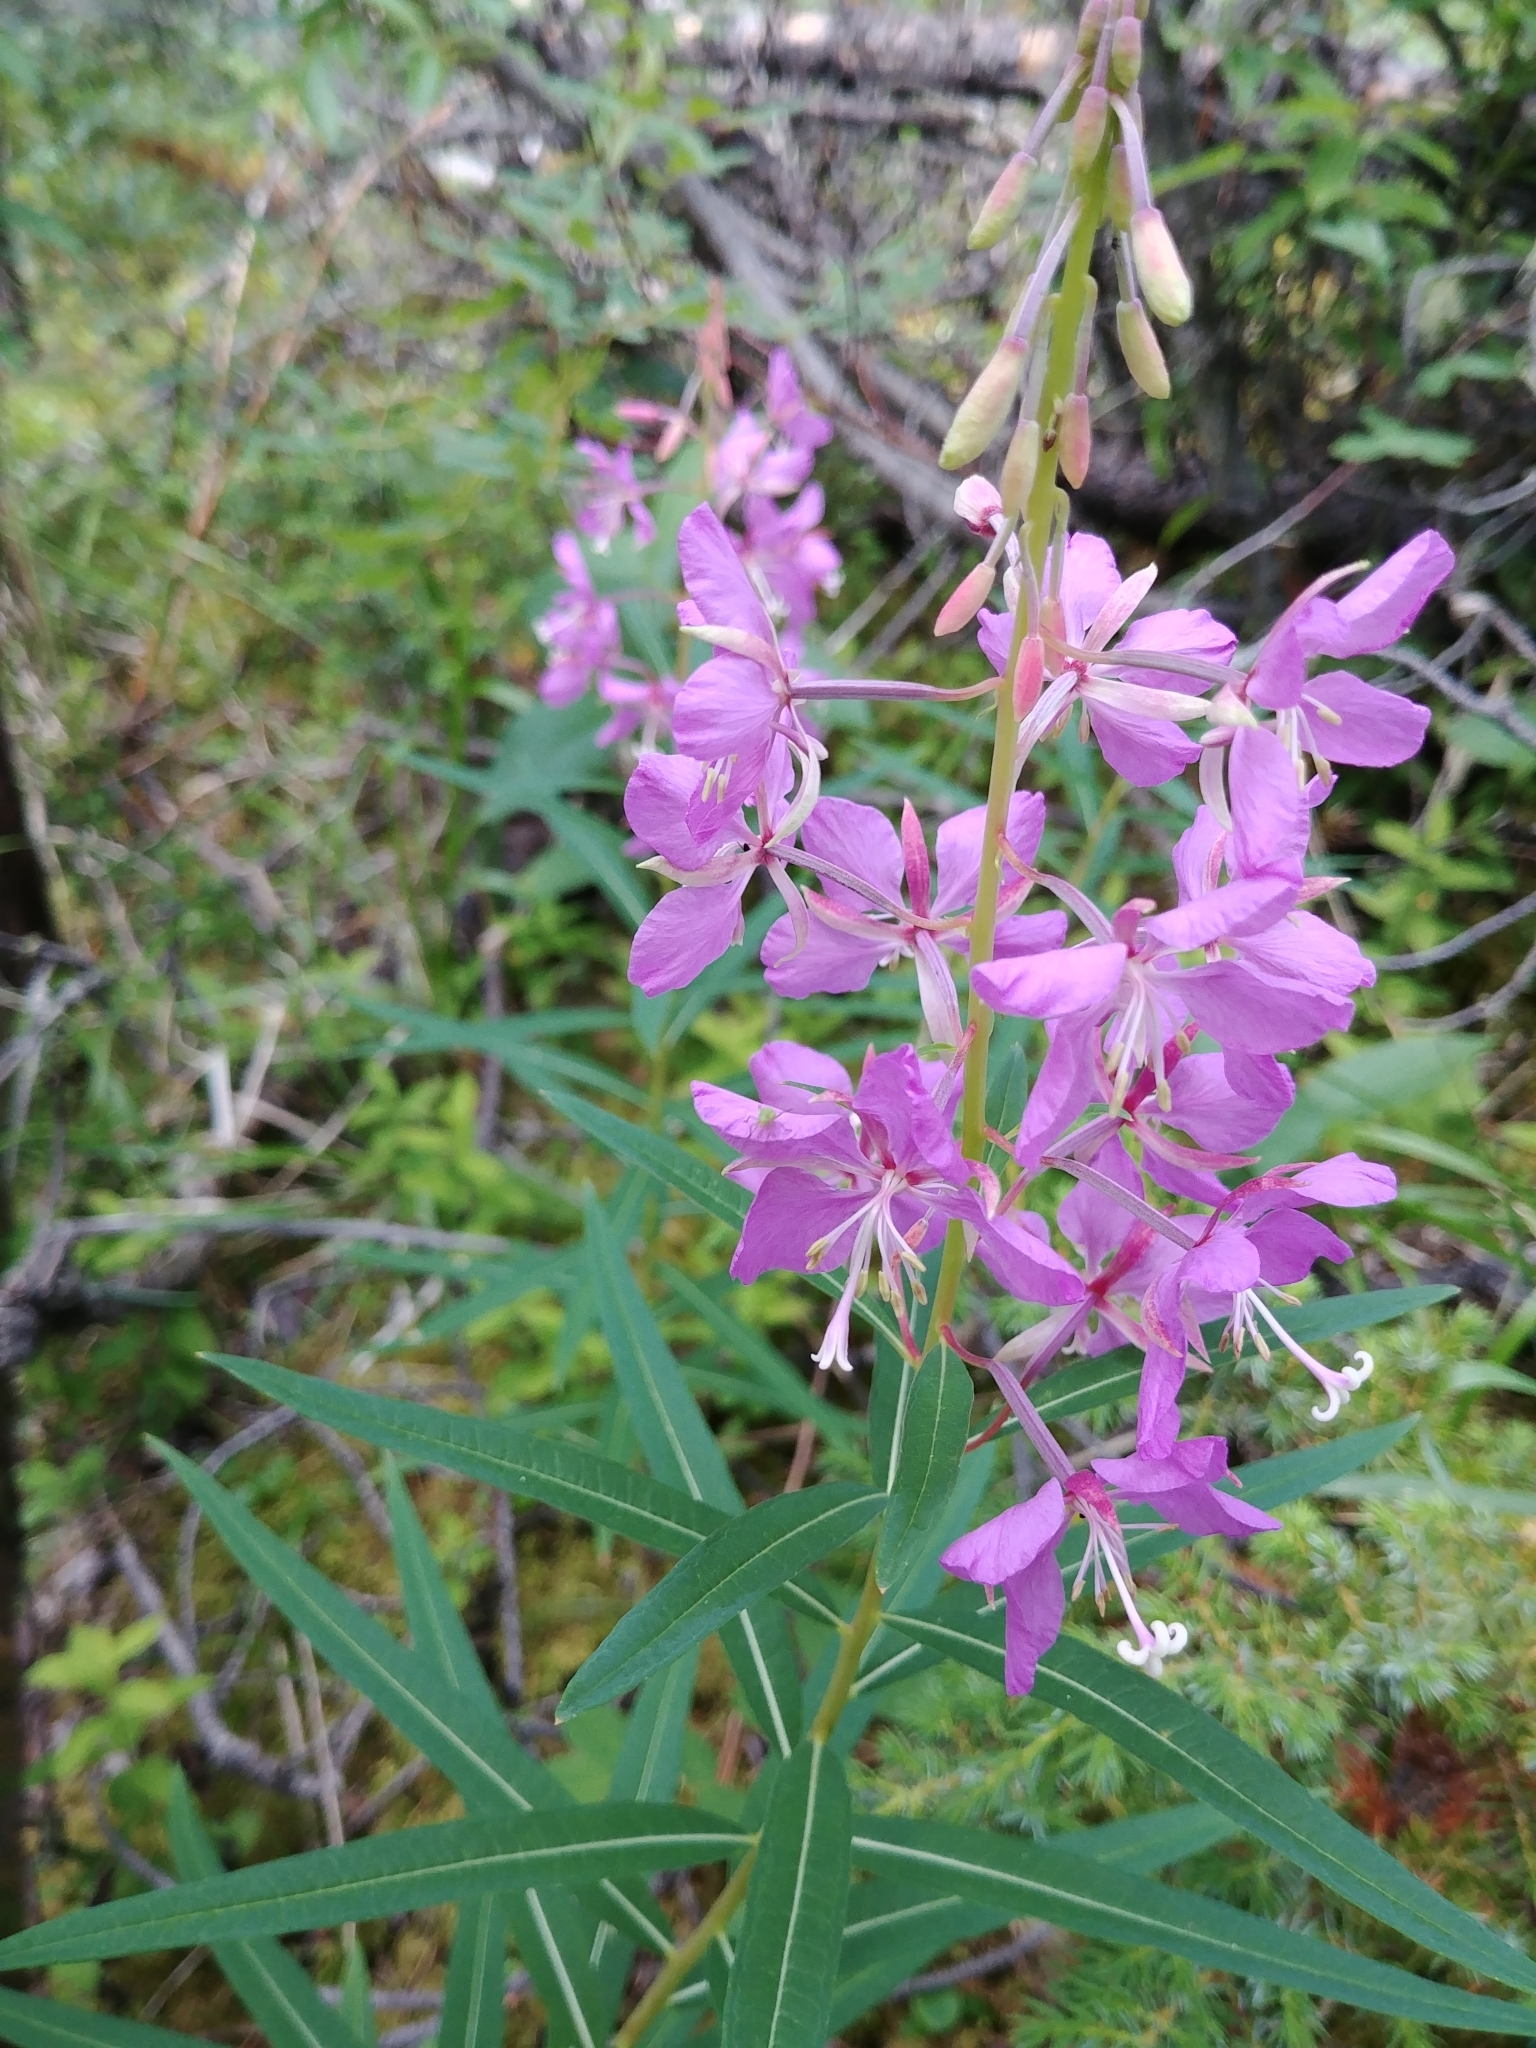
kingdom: Plantae
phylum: Tracheophyta
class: Magnoliopsida
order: Myrtales
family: Onagraceae
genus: Chamaenerion
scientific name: Chamaenerion angustifolium
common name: Fireweed
